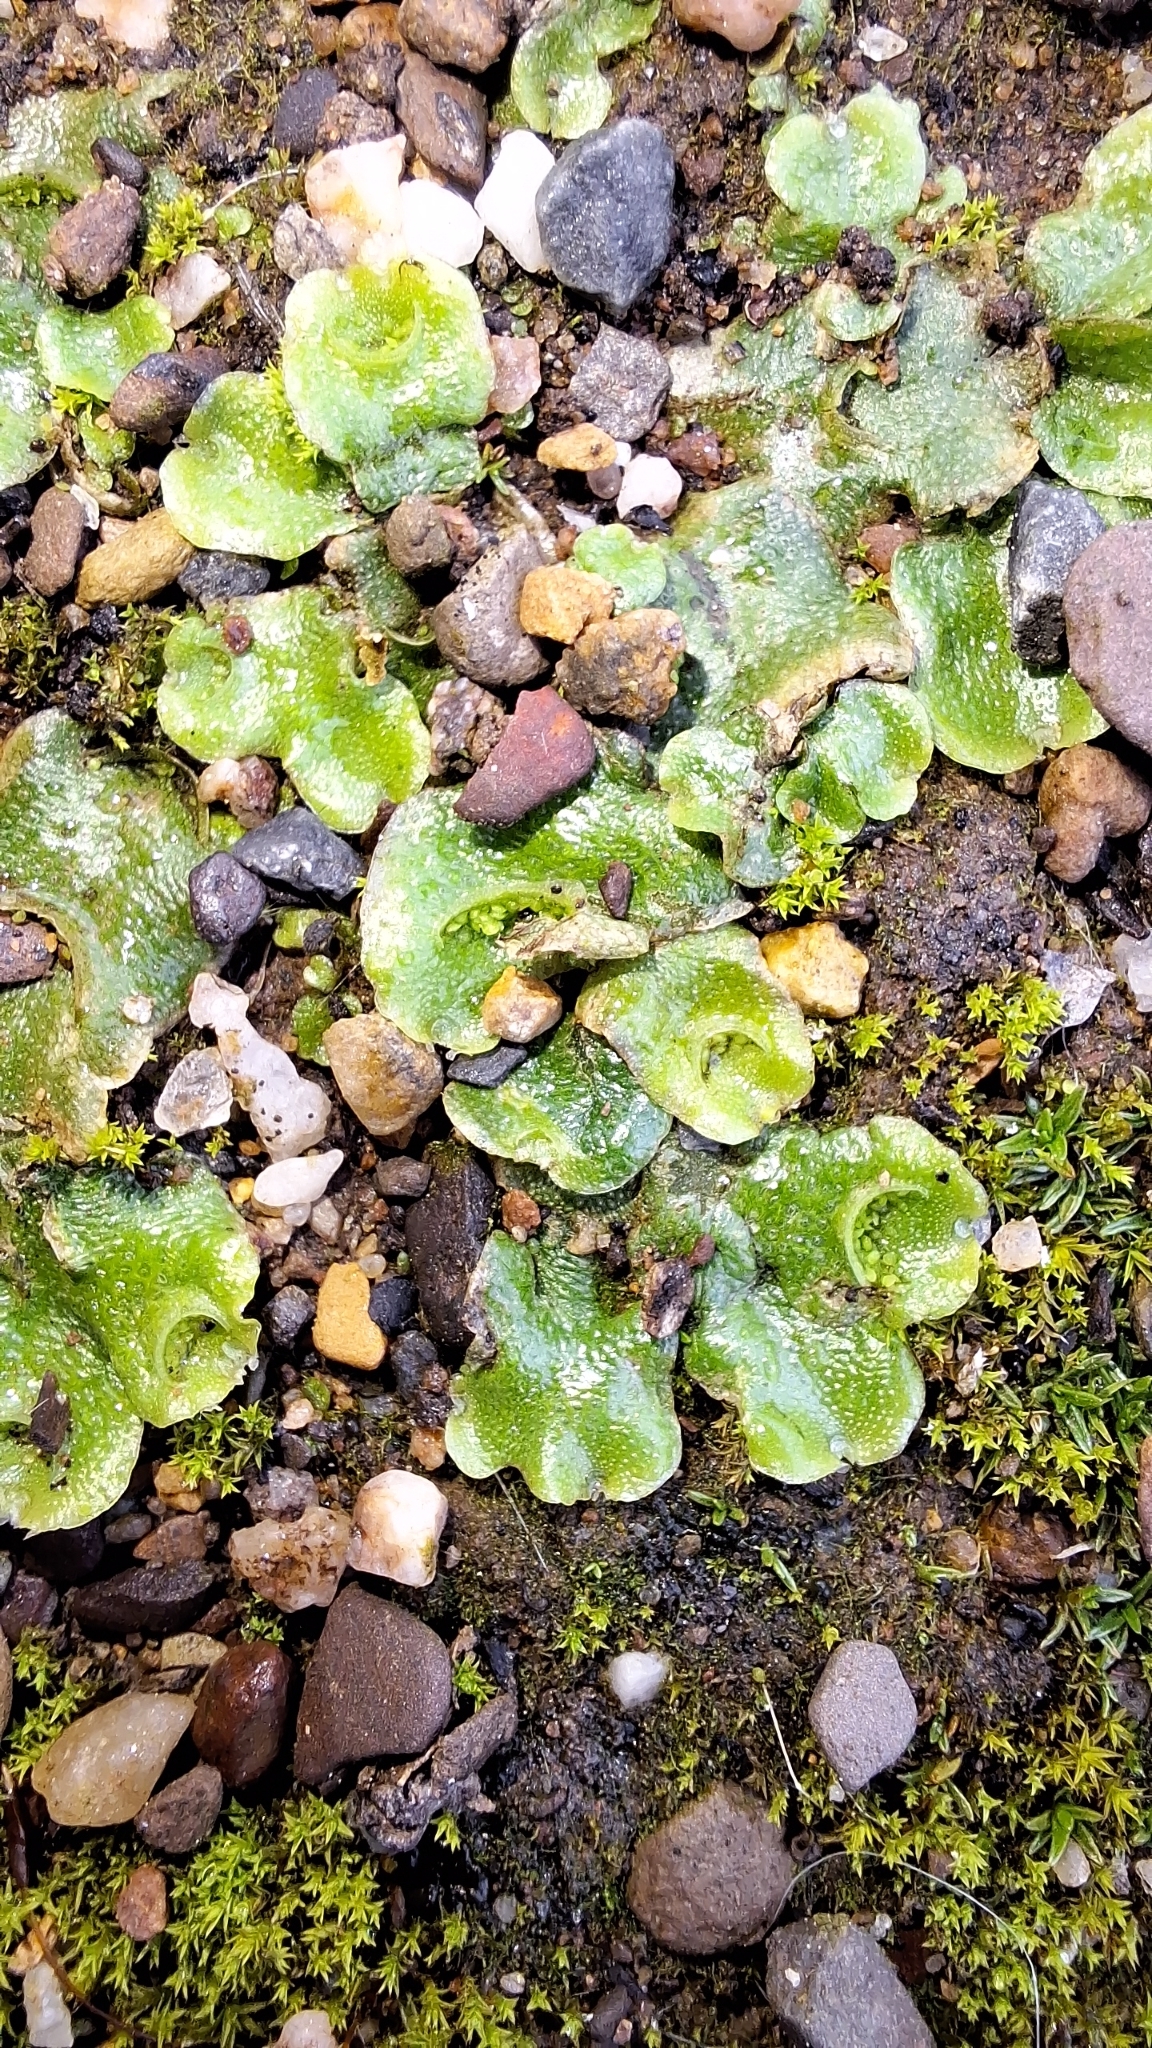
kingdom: Plantae
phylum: Marchantiophyta
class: Marchantiopsida
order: Lunulariales
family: Lunulariaceae
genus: Lunularia
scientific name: Lunularia cruciata
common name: Crescent-cup liverwort
